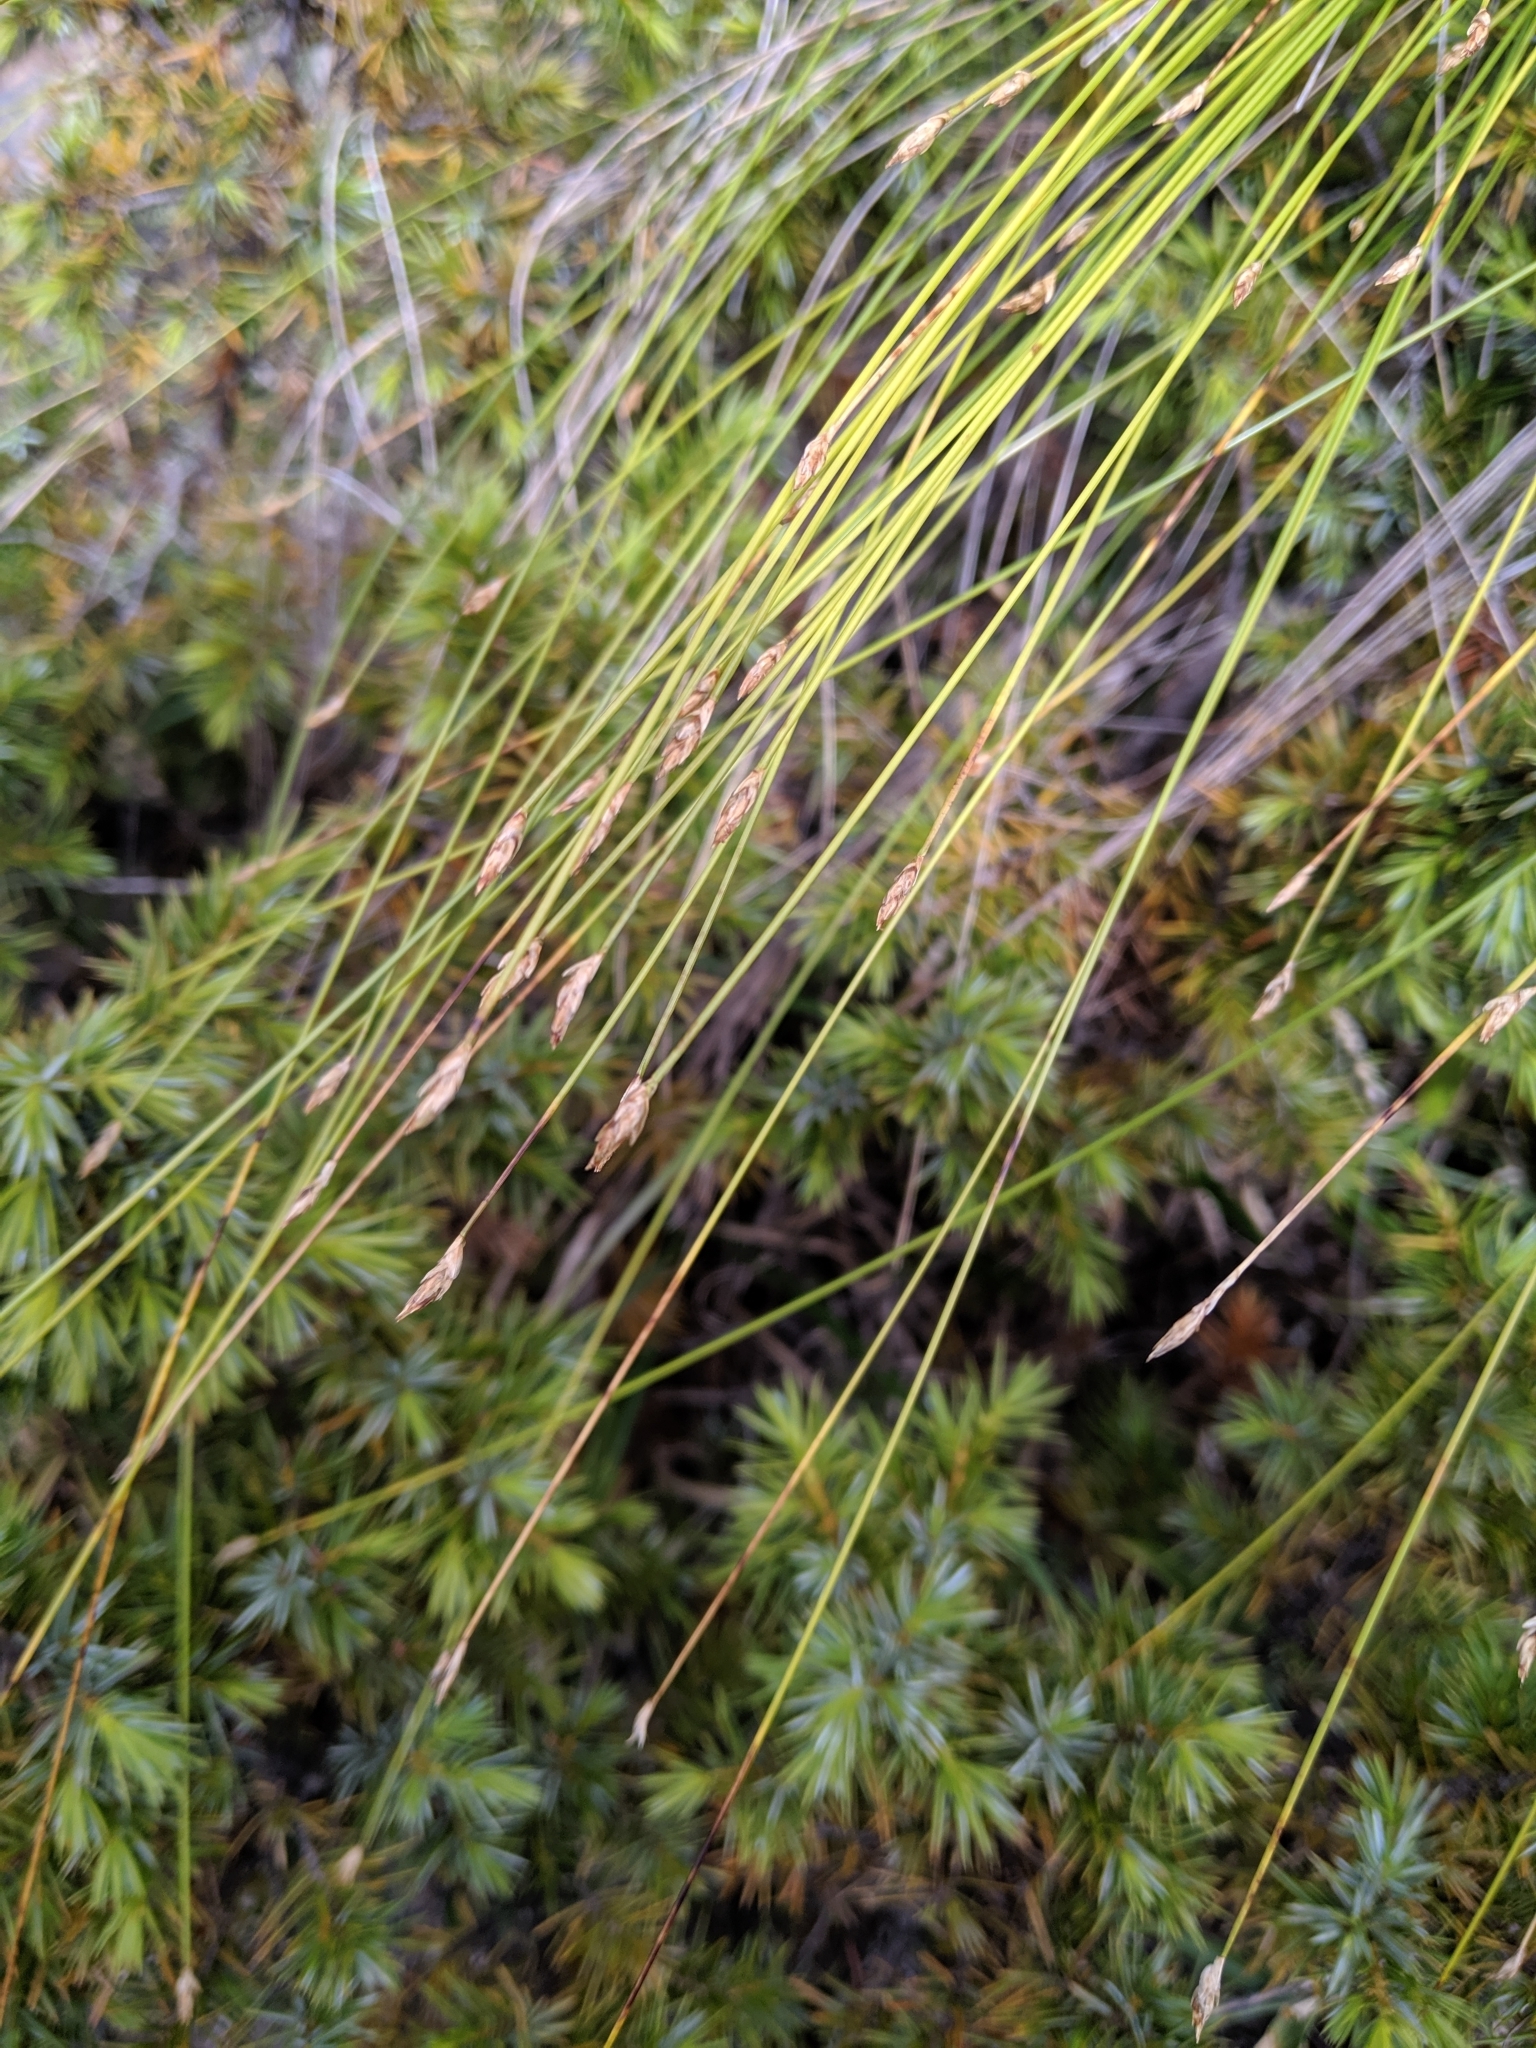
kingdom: Plantae
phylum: Tracheophyta
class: Liliopsida
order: Poales
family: Cyperaceae
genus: Trichophorum
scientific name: Trichophorum subcapitatum
